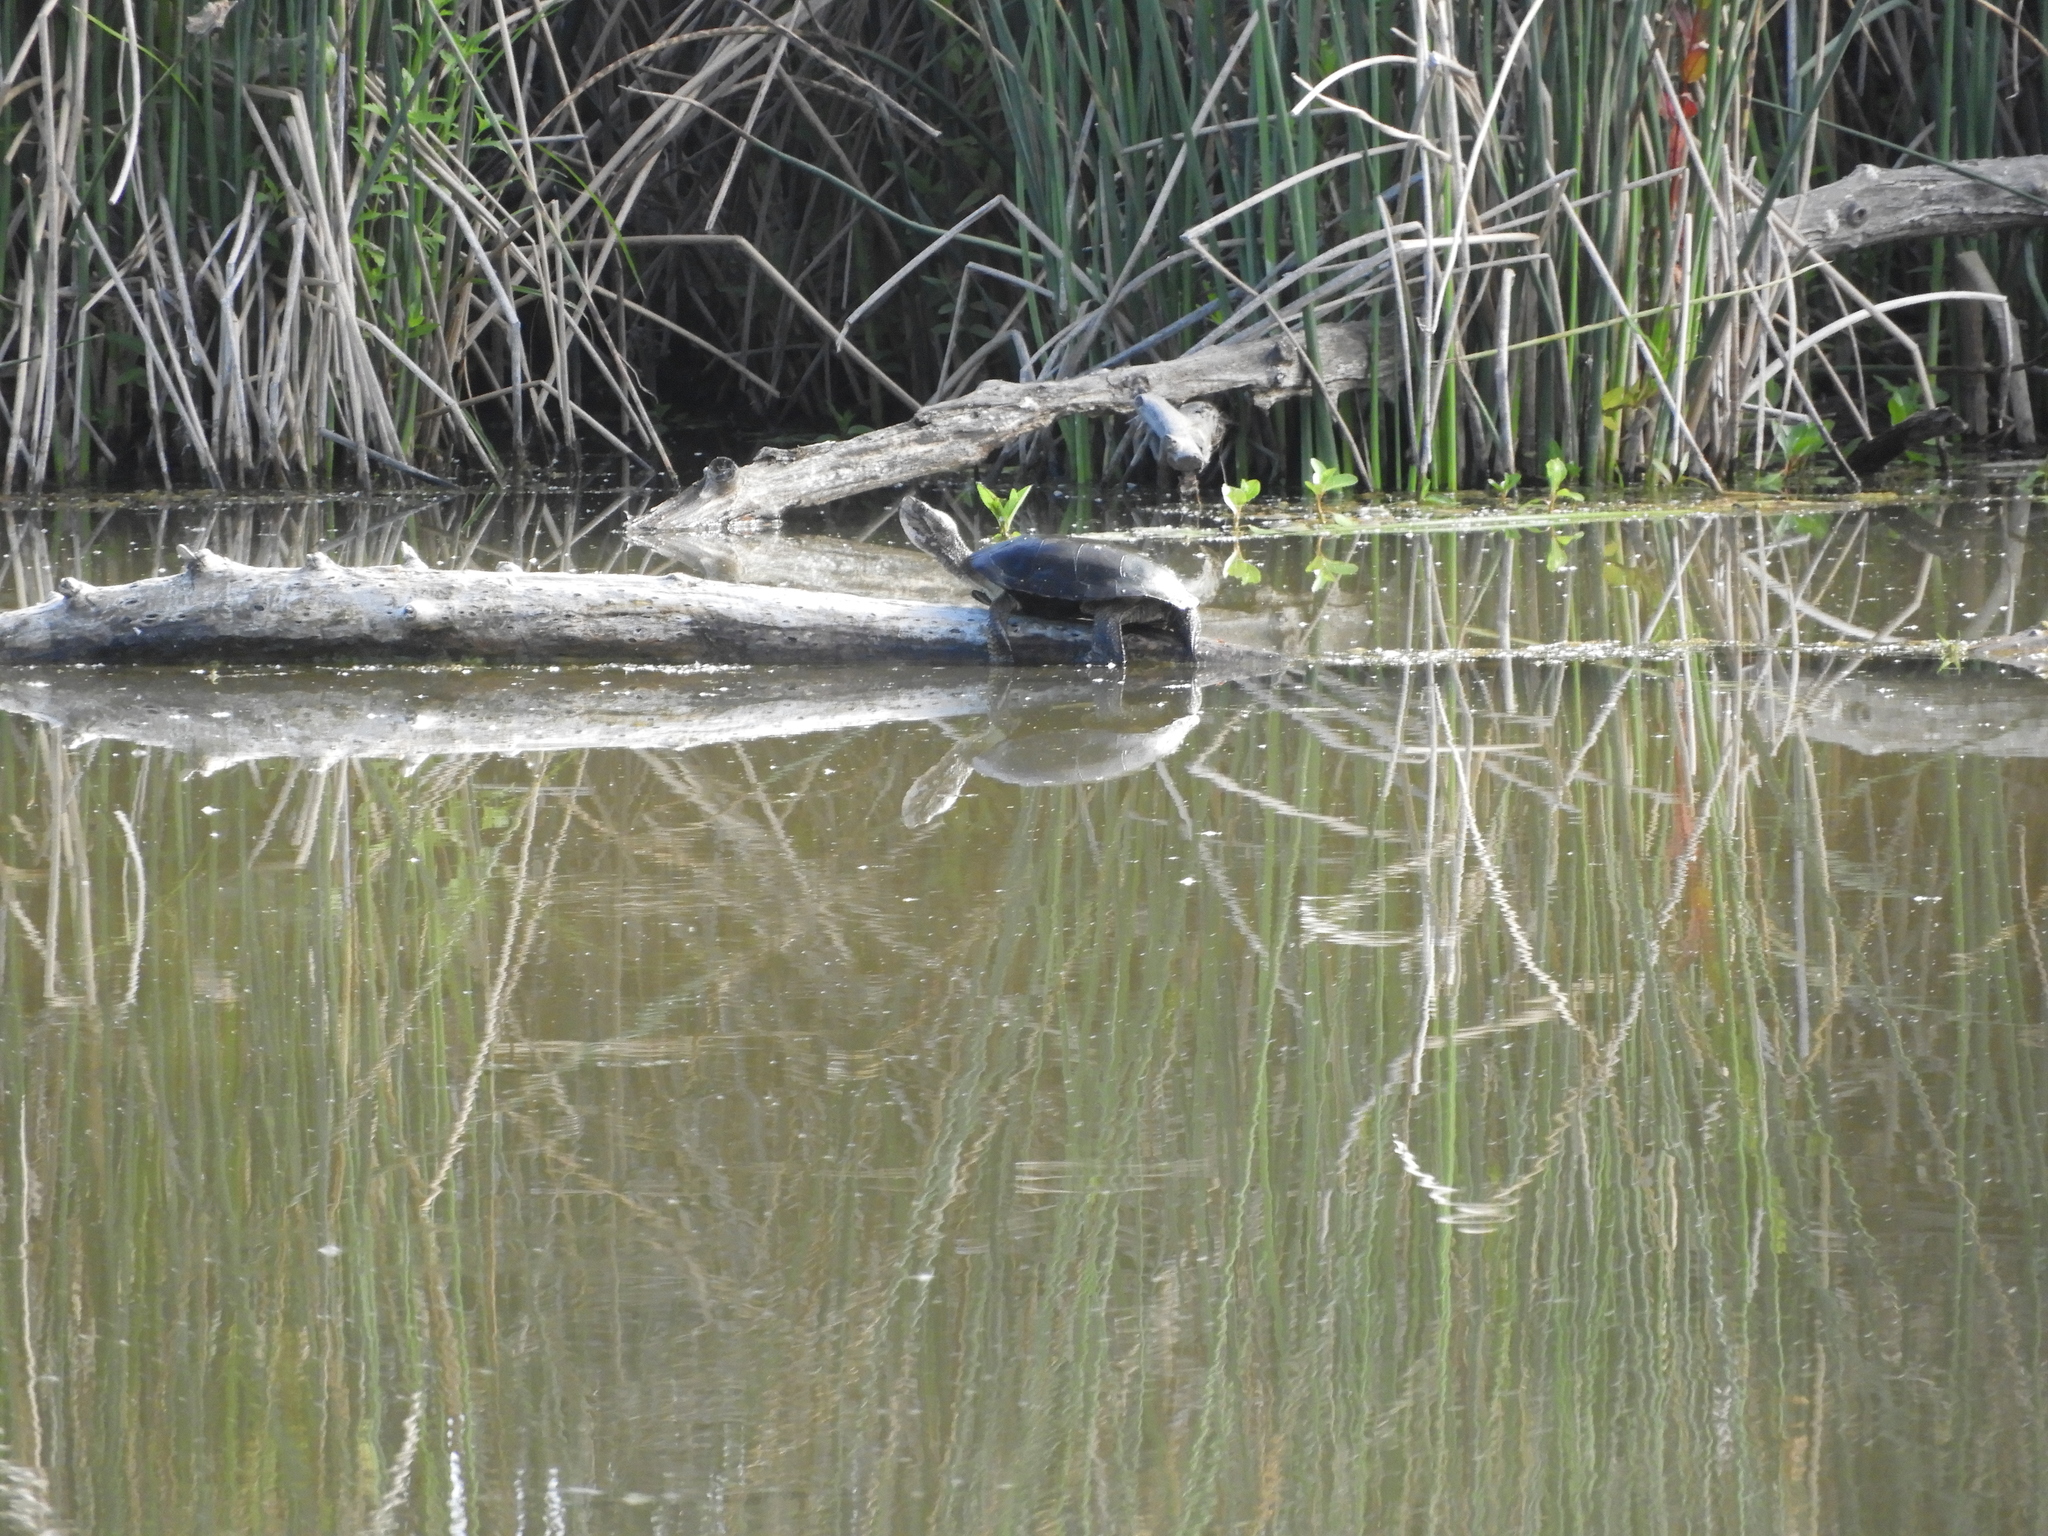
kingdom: Animalia
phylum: Chordata
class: Testudines
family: Emydidae
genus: Actinemys
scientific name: Actinemys marmorata
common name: Western pond turtle
